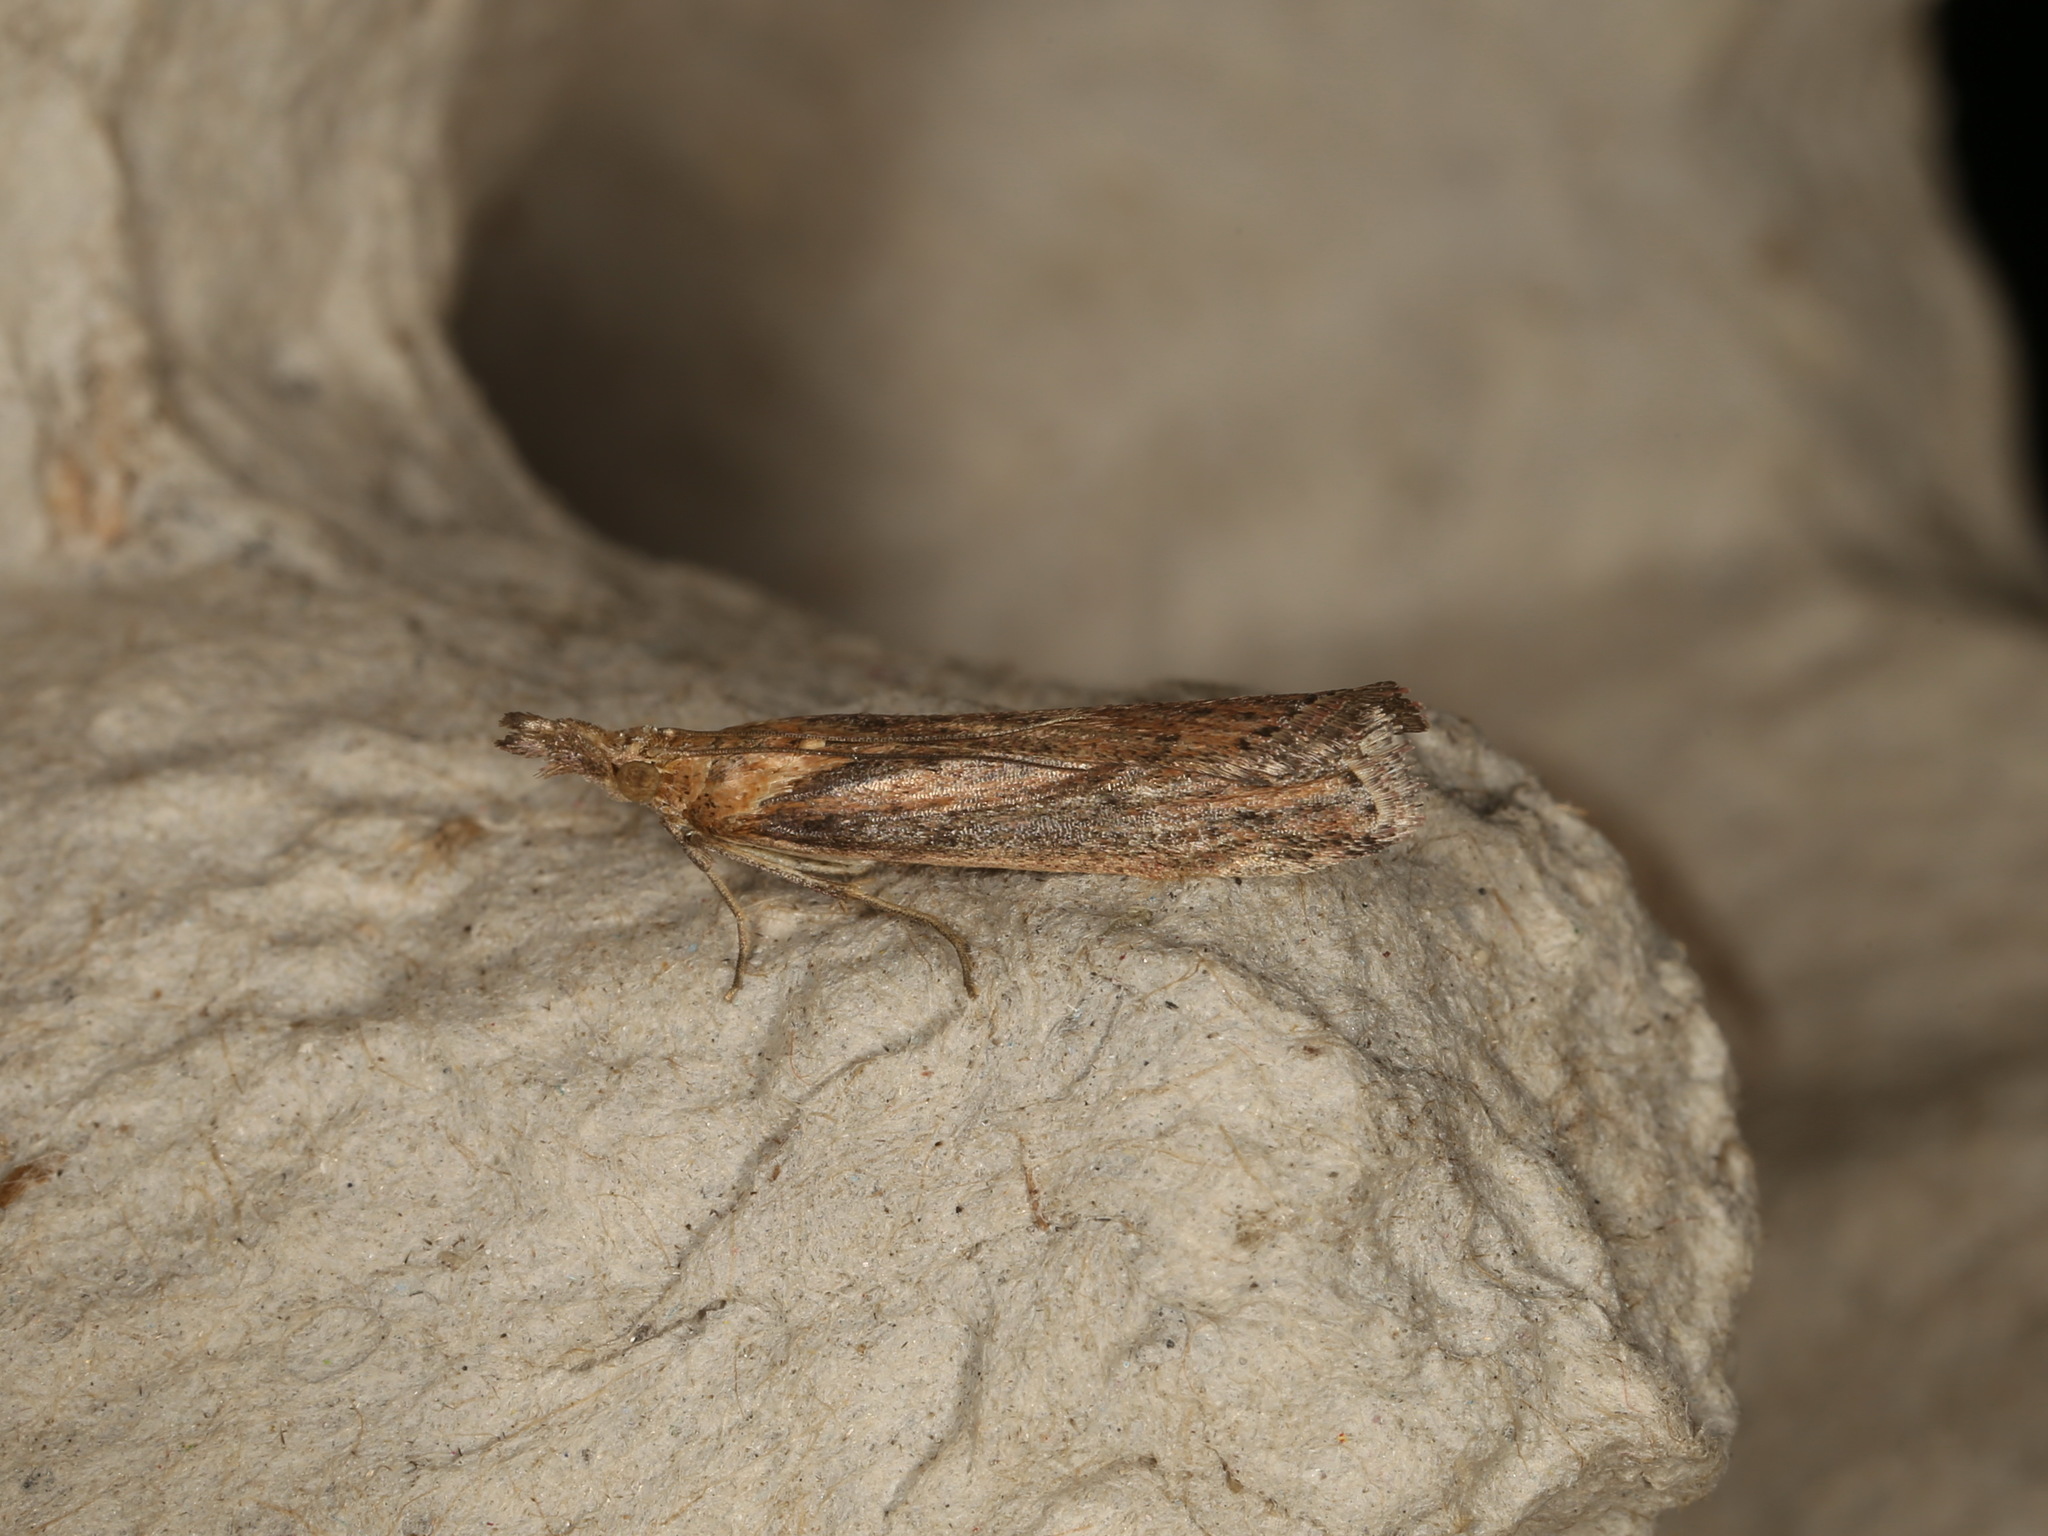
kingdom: Animalia
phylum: Arthropoda
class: Insecta
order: Lepidoptera
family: Pyralidae
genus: Faveria
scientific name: Faveria tritalis
